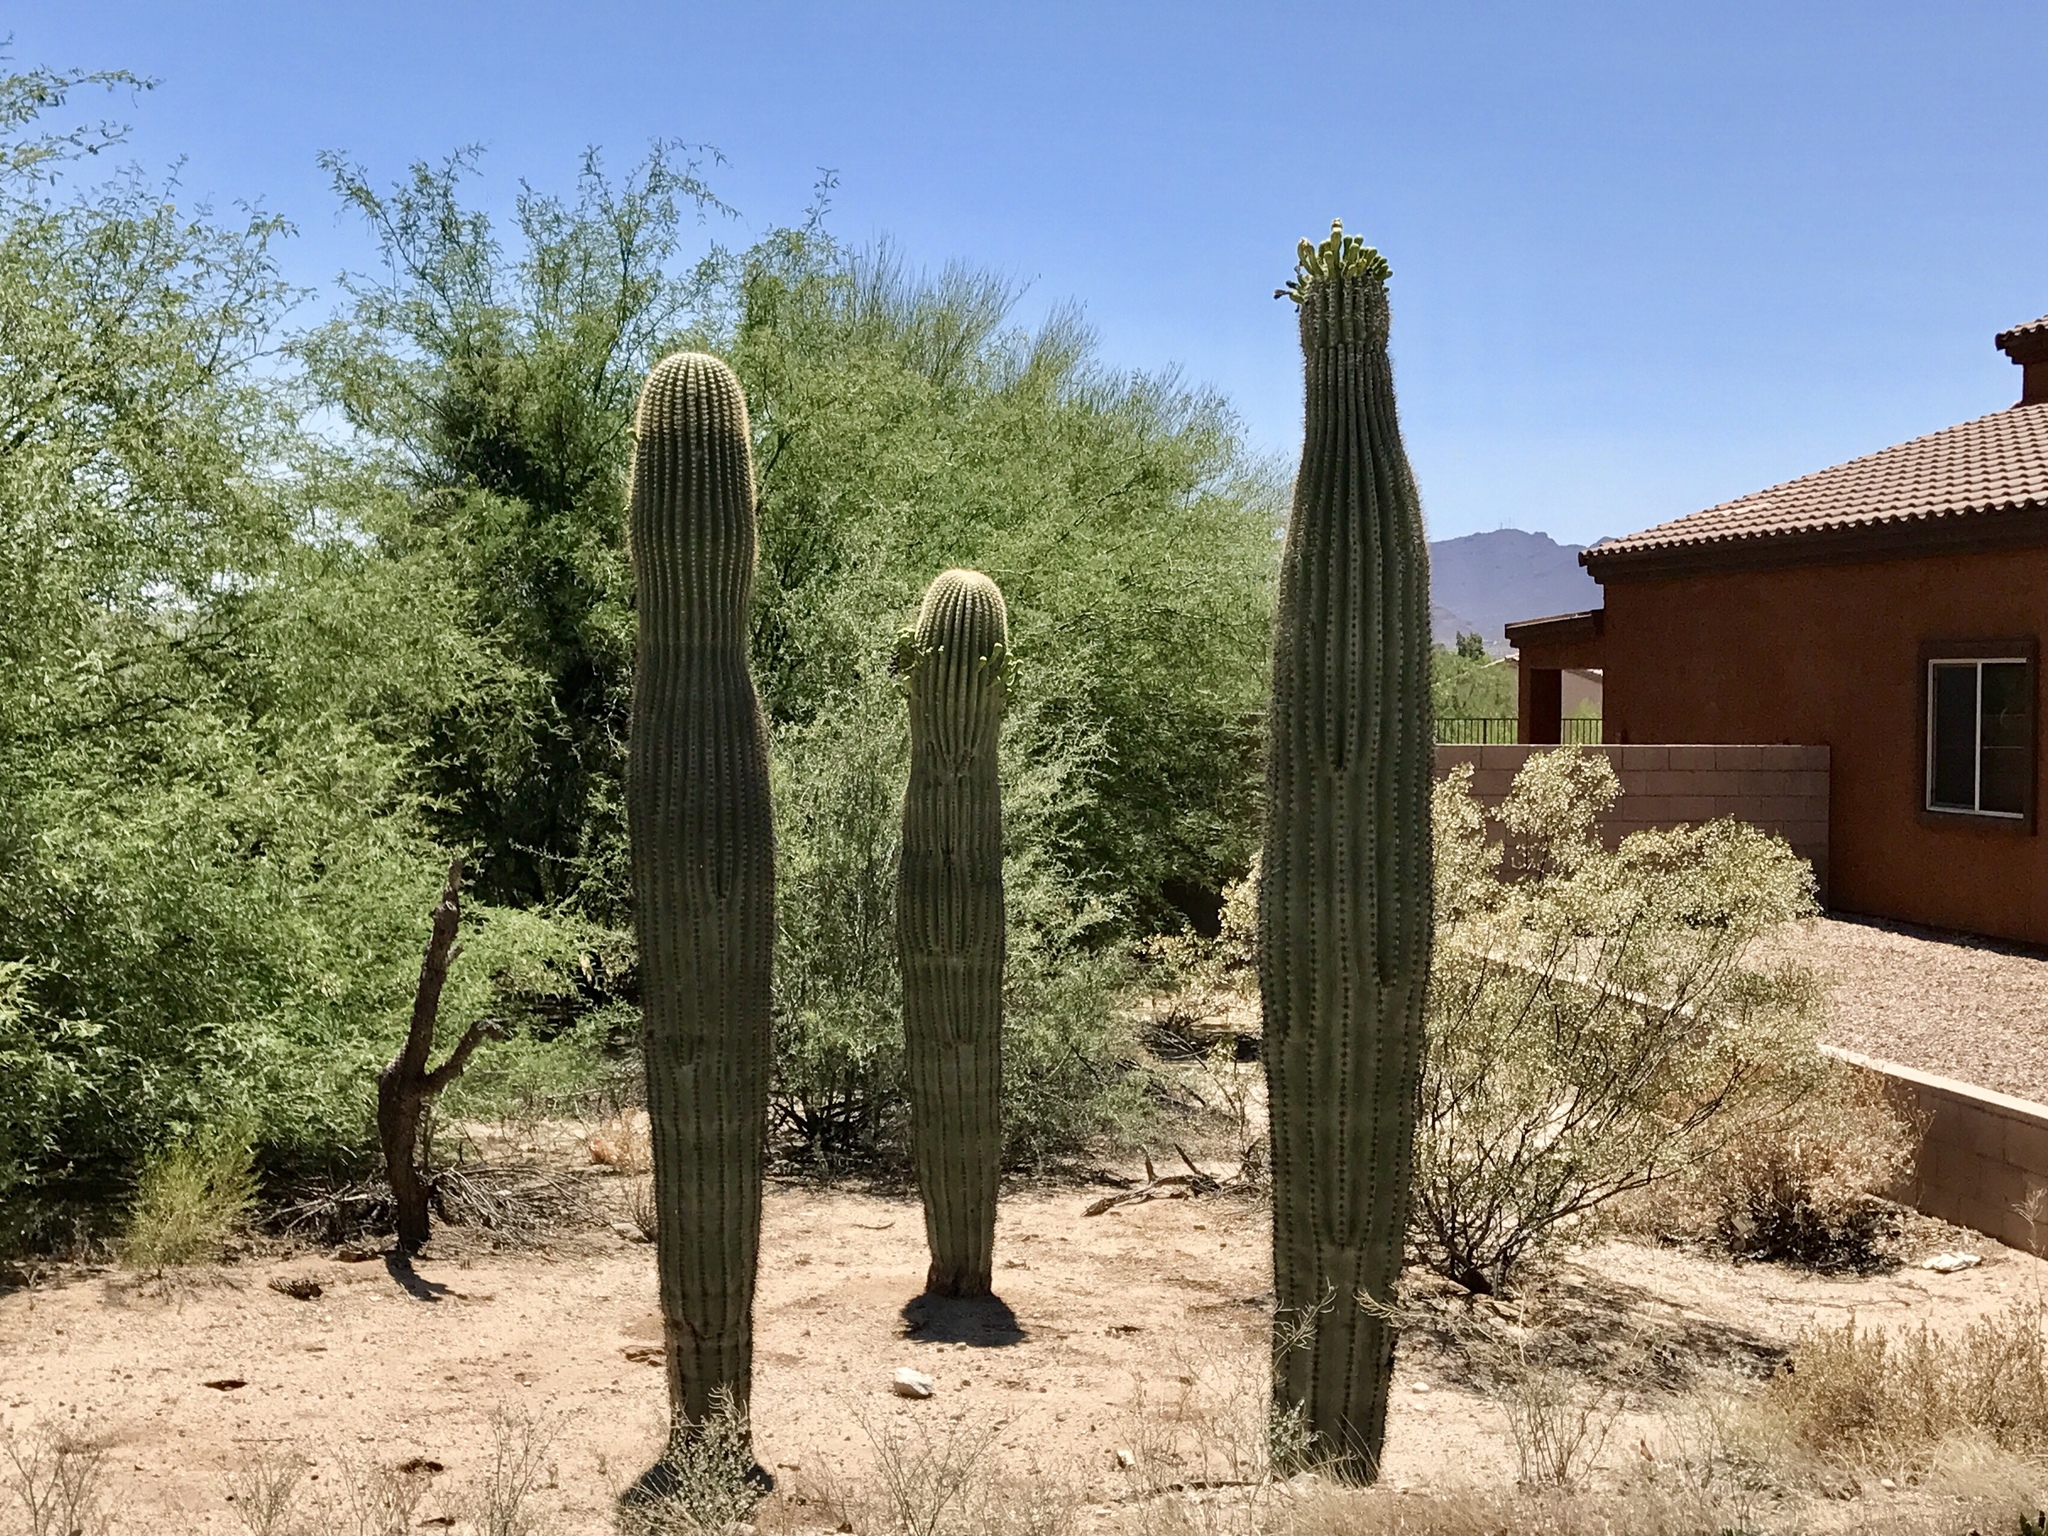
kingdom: Plantae
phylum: Tracheophyta
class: Magnoliopsida
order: Caryophyllales
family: Cactaceae
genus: Carnegiea
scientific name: Carnegiea gigantea
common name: Saguaro
